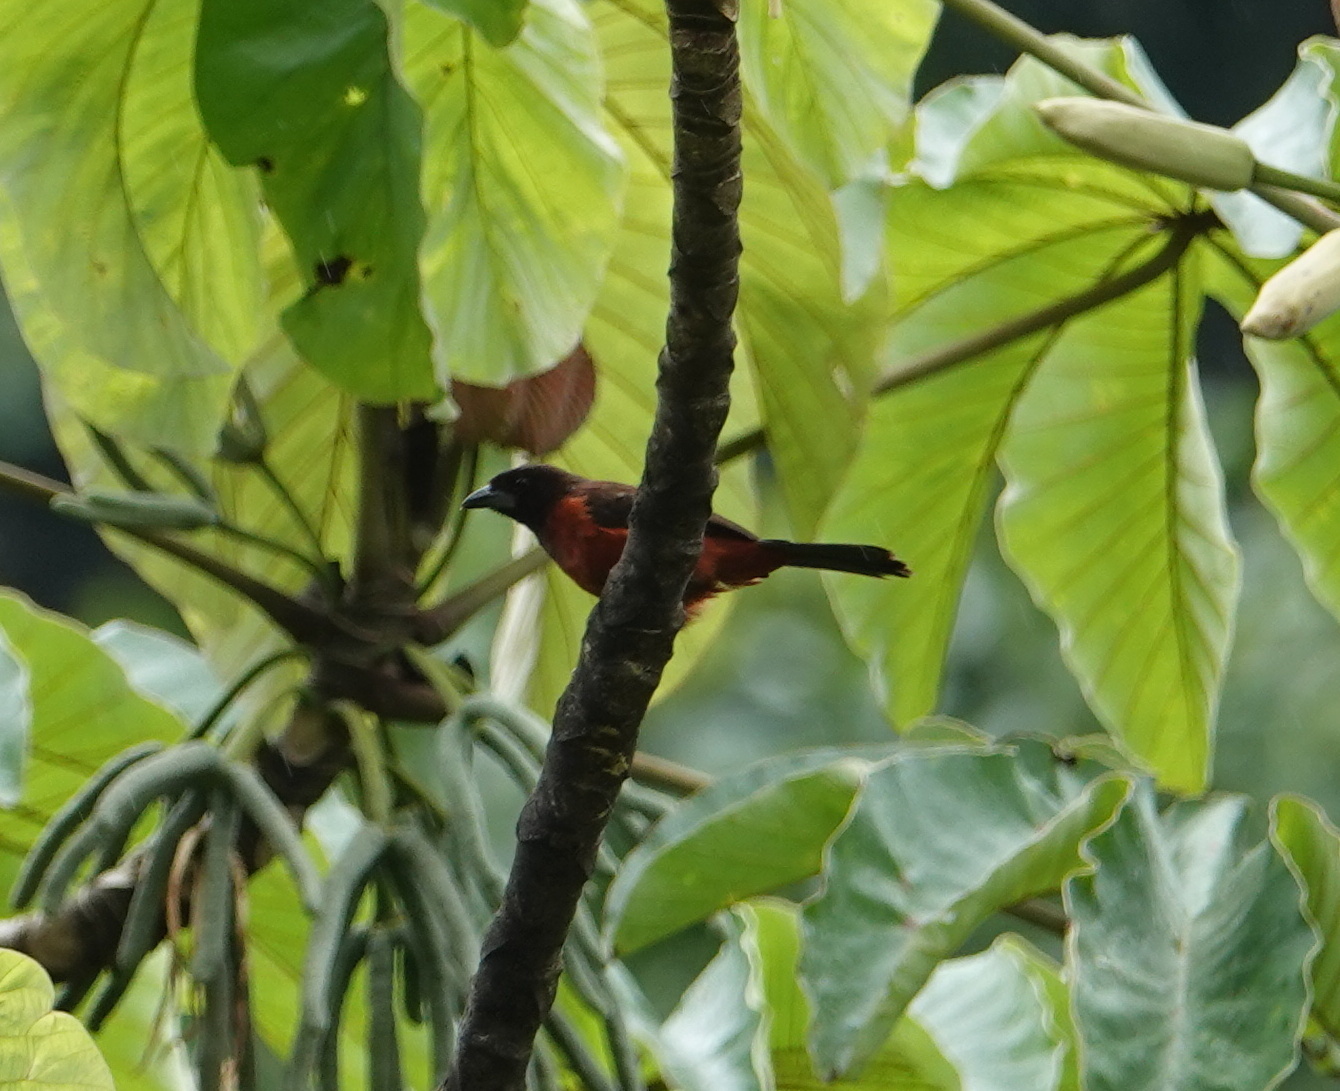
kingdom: Animalia
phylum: Chordata
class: Aves
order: Passeriformes
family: Thraupidae
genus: Ramphocelus
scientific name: Ramphocelus dimidiatus
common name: Crimson-backed tanager
